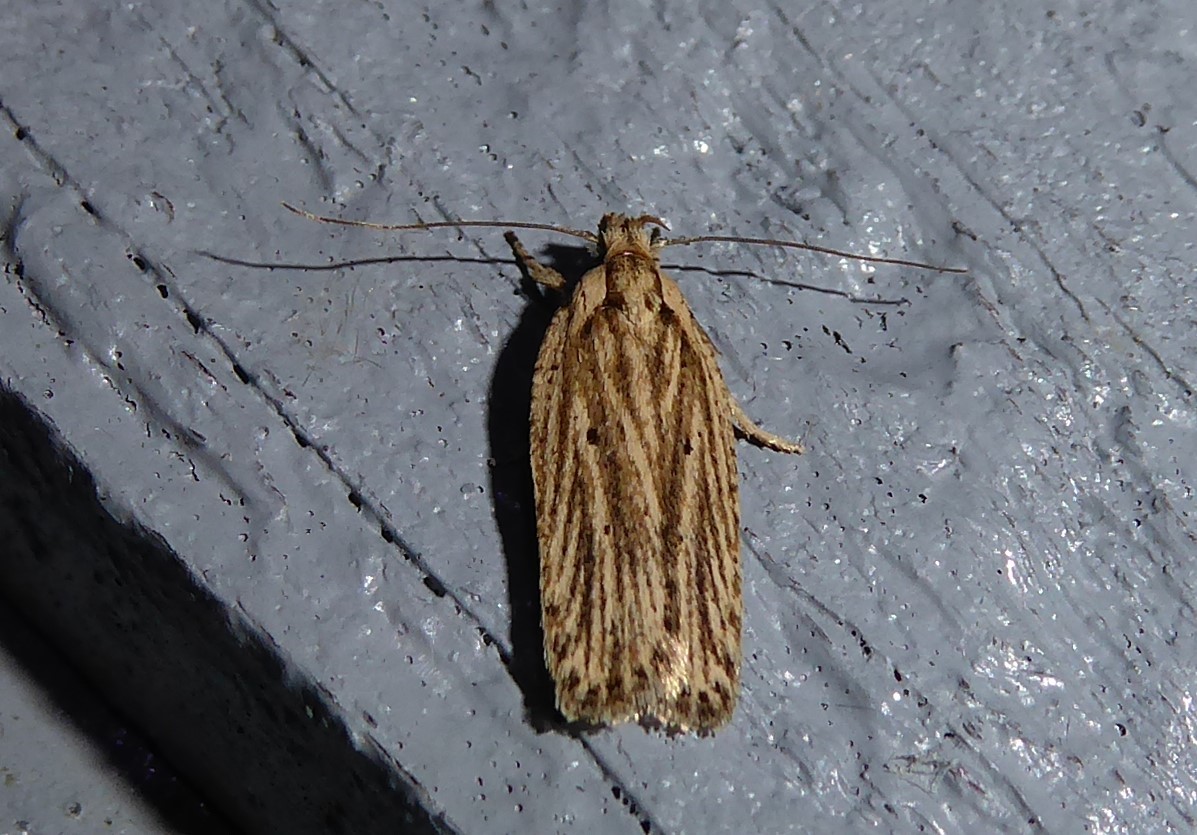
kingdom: Animalia
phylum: Arthropoda
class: Insecta
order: Lepidoptera
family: Depressariidae
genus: Agonopterix
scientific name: Agonopterix
